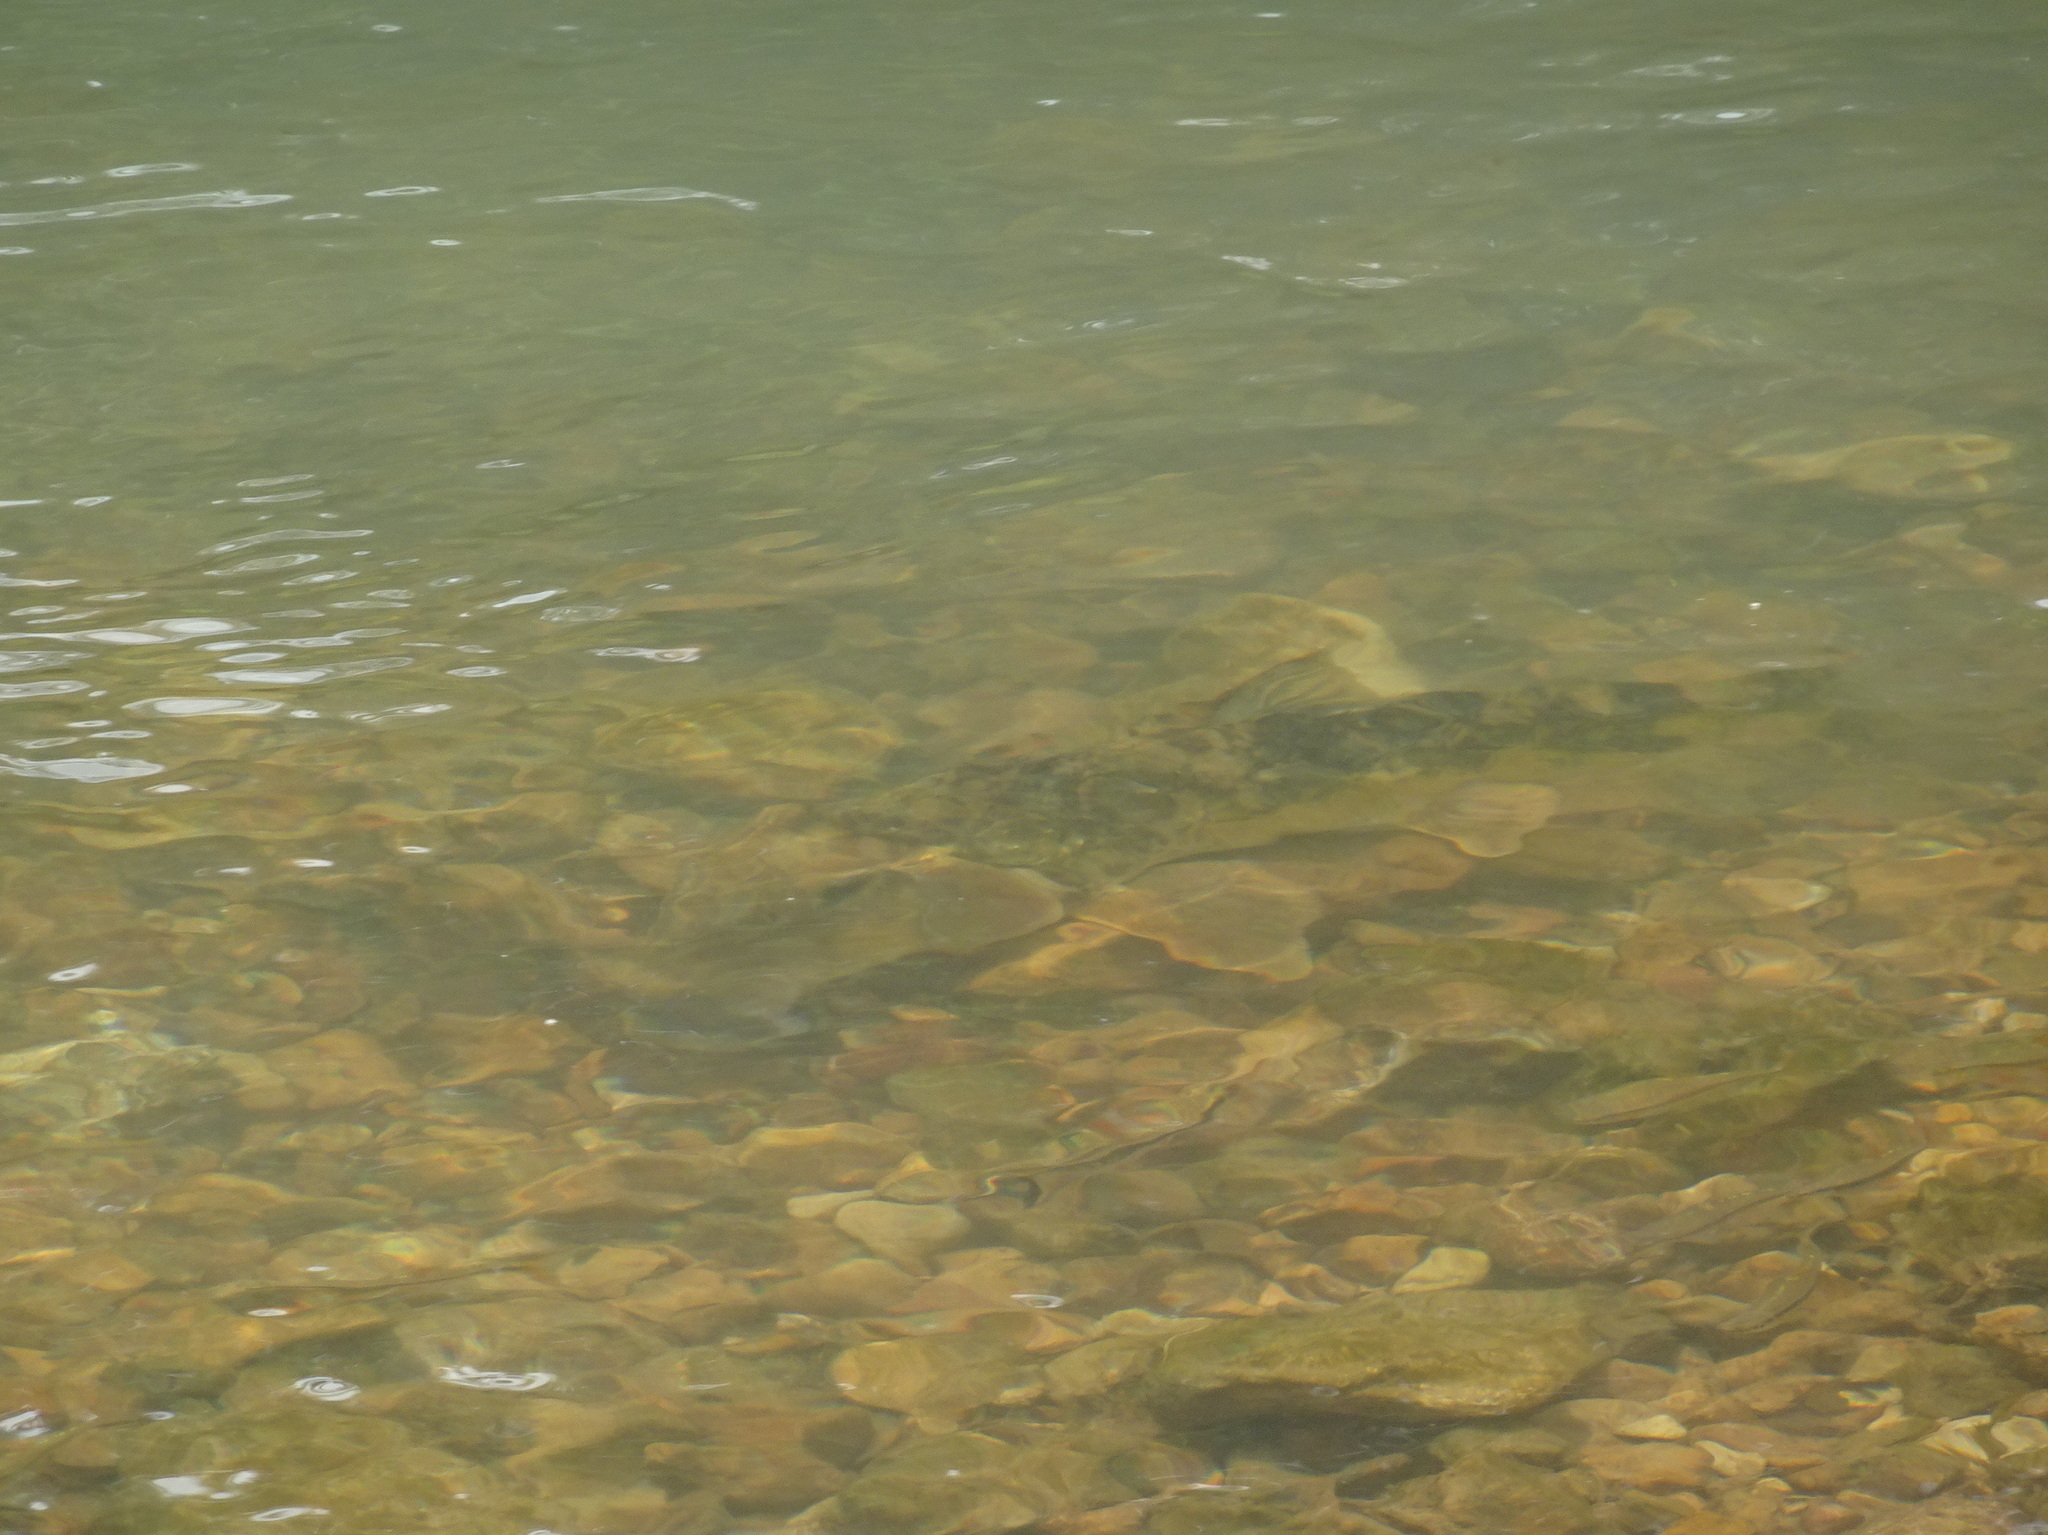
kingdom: Animalia
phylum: Chordata
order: Cypriniformes
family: Catostomidae
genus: Hypentelium
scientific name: Hypentelium nigricans
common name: Northern hog sucker
